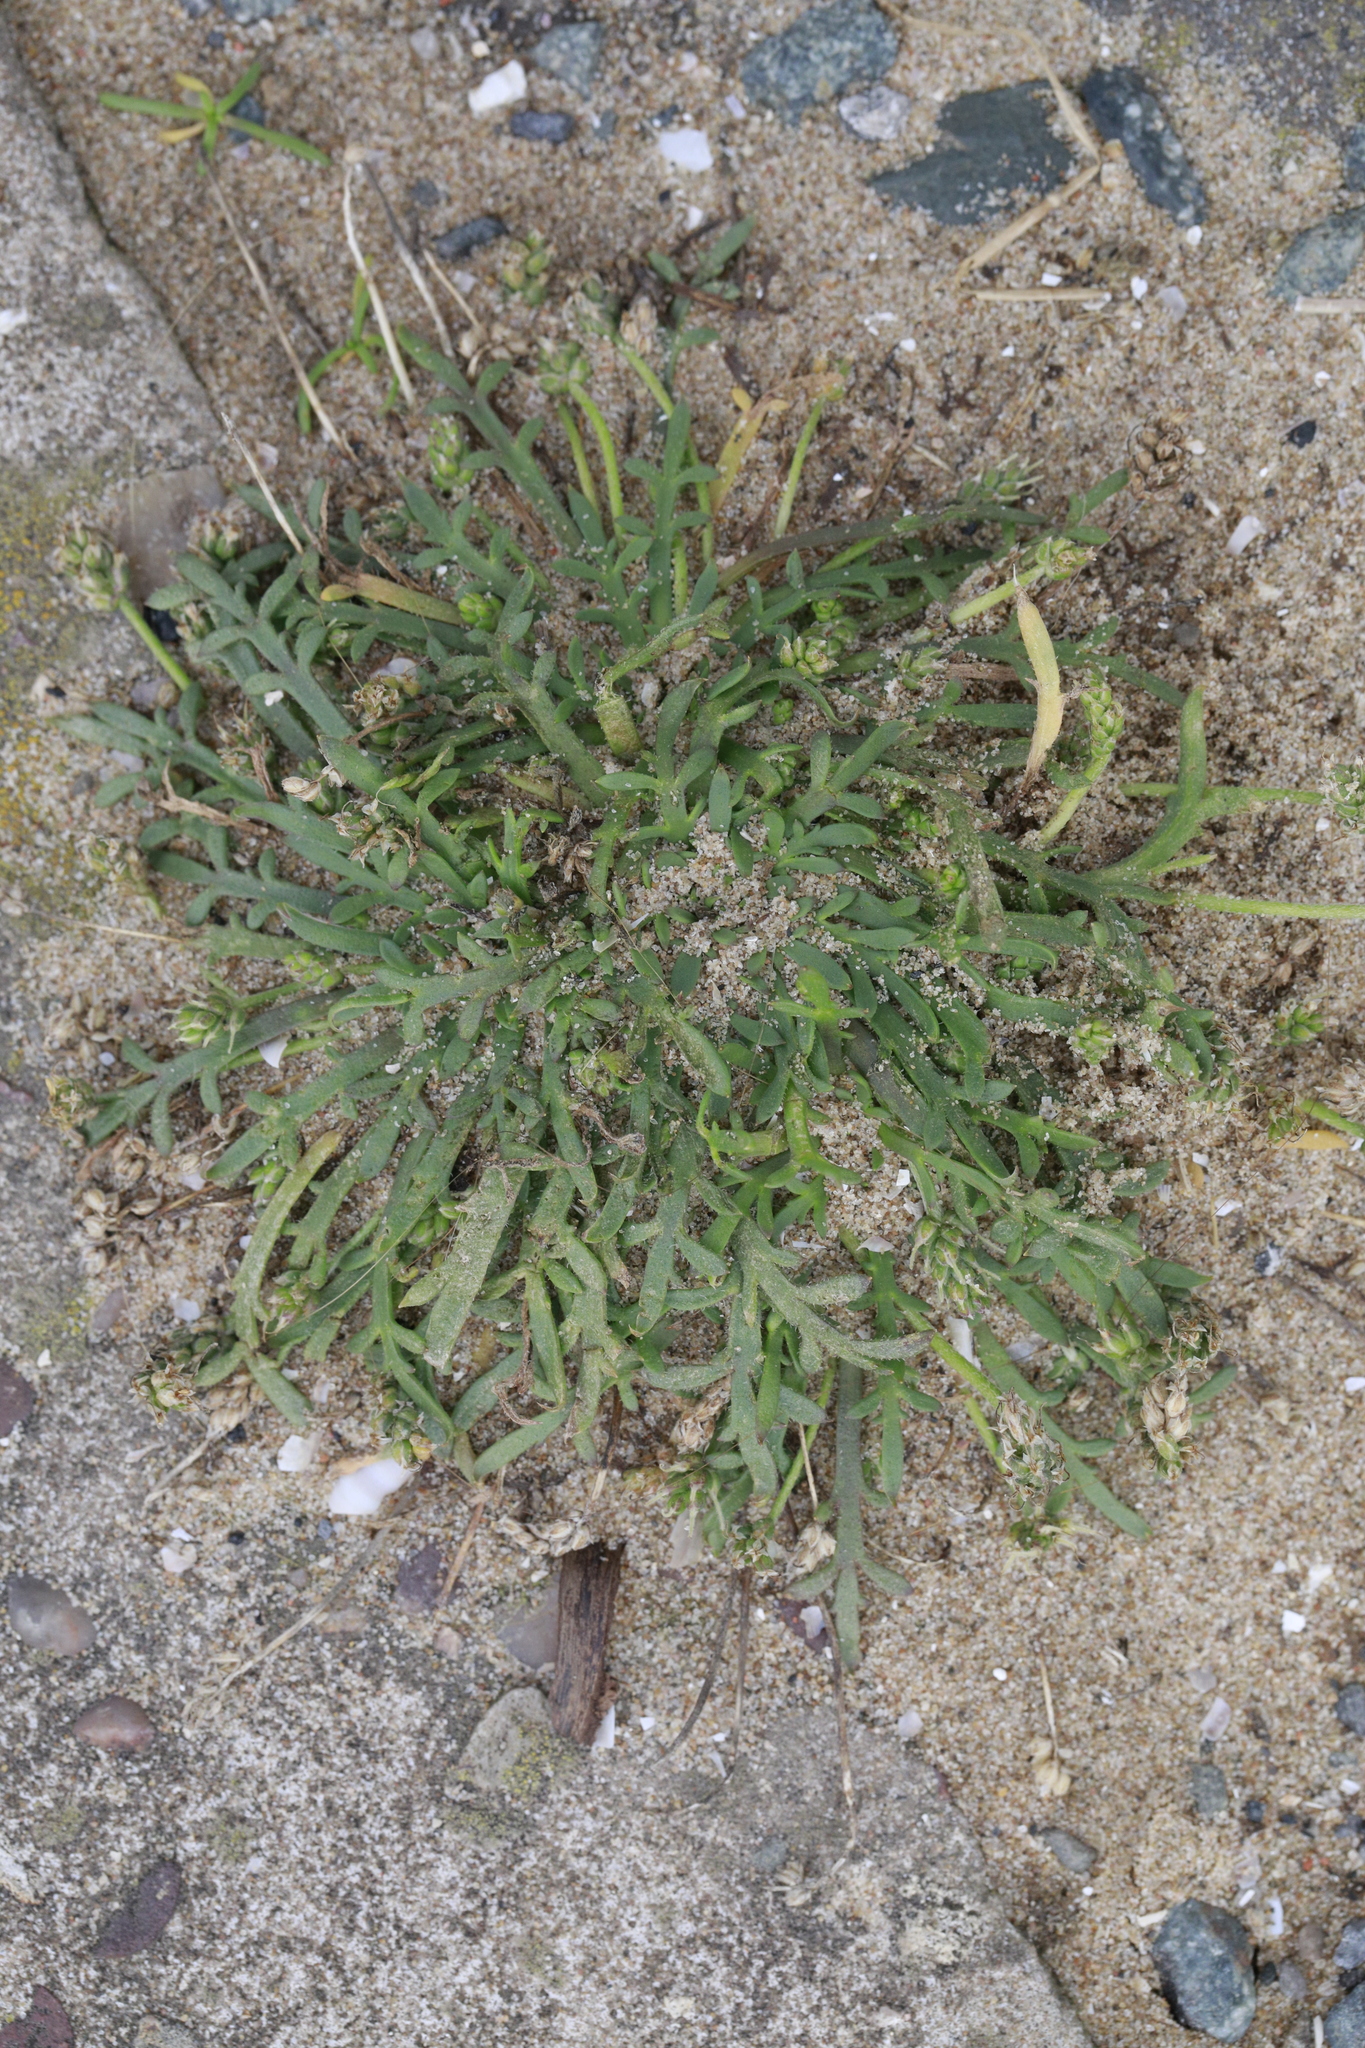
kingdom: Plantae
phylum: Tracheophyta
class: Magnoliopsida
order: Lamiales
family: Plantaginaceae
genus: Plantago
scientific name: Plantago coronopus
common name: Buck's-horn plantain
